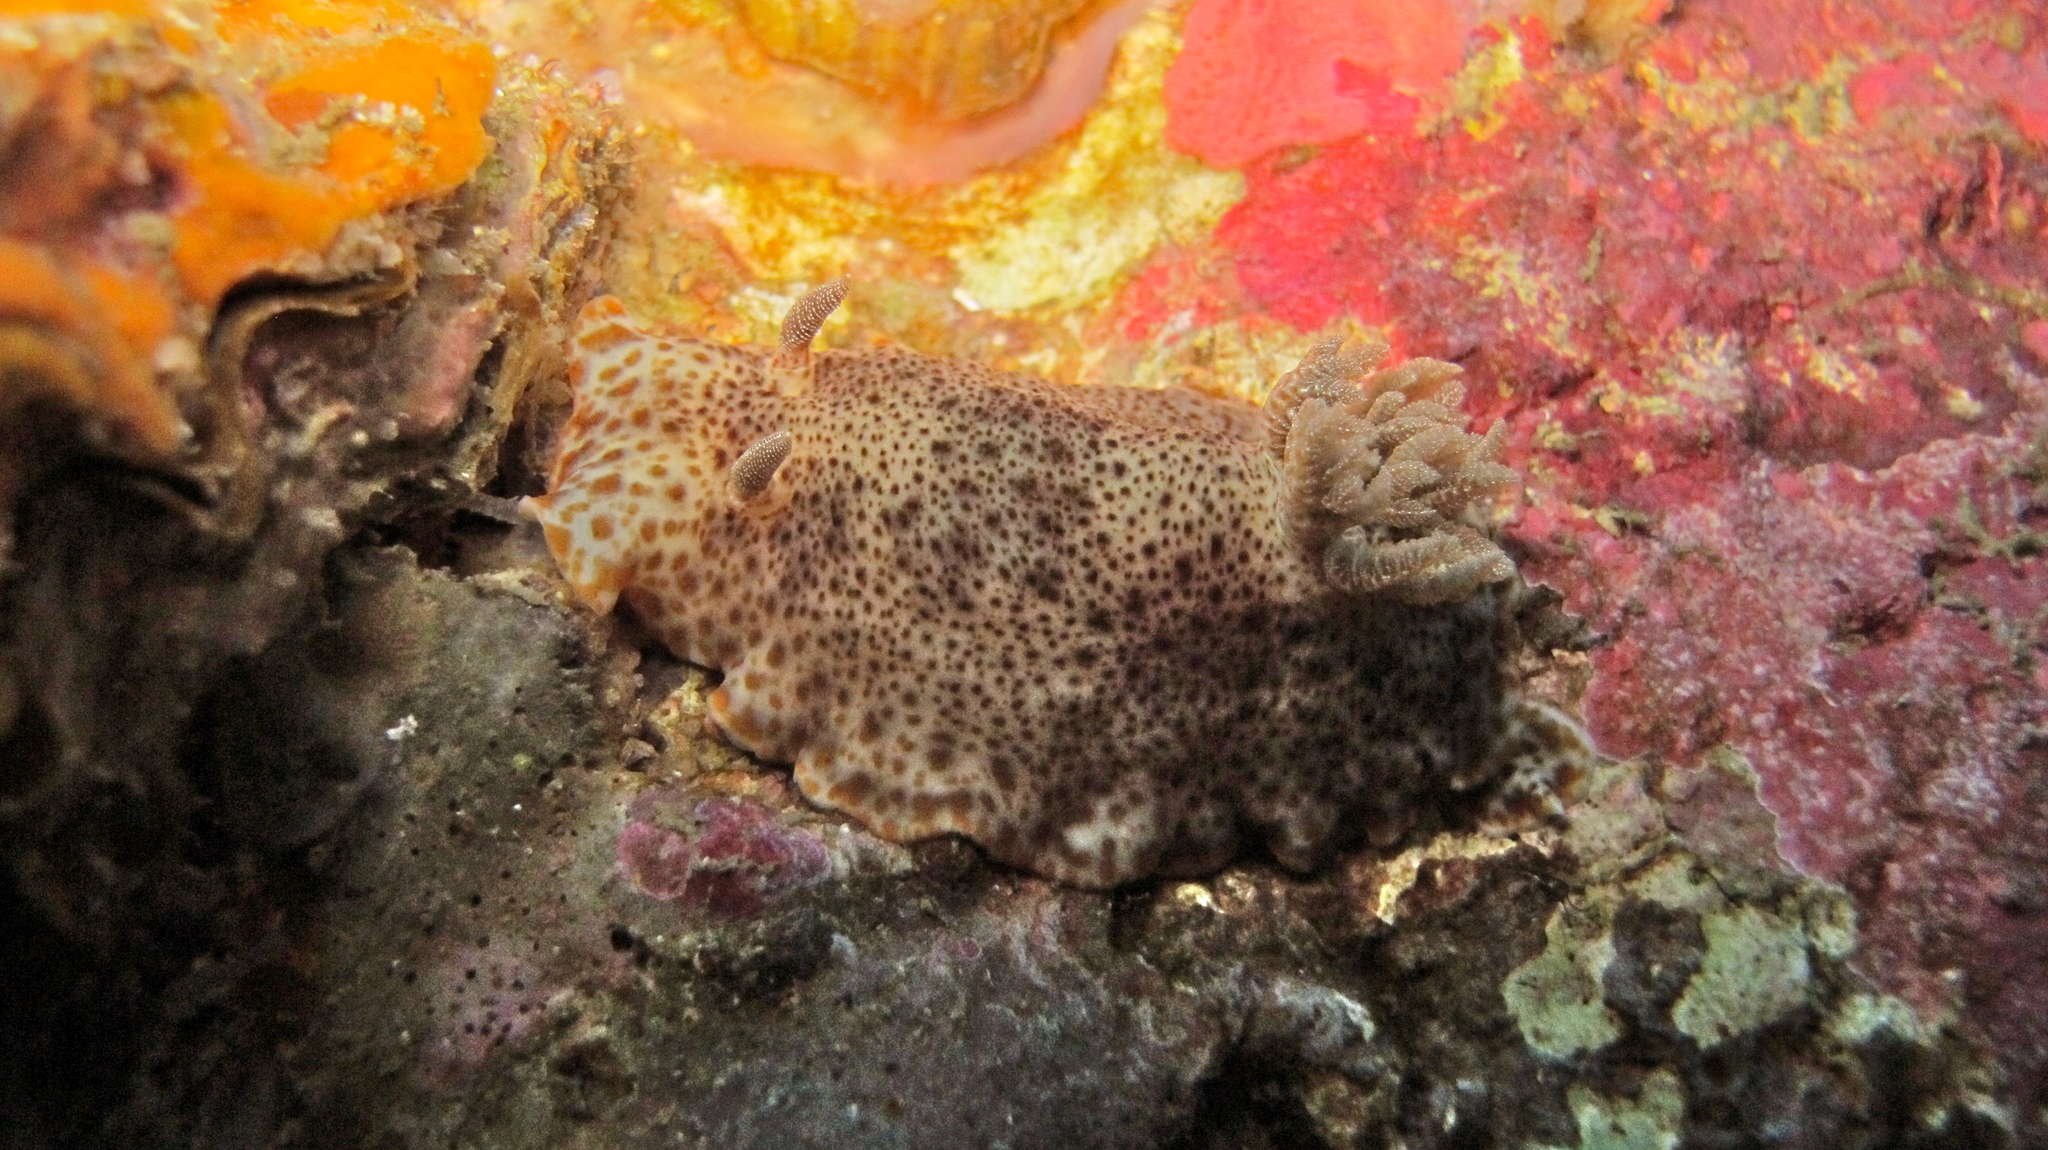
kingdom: Animalia
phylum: Mollusca
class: Gastropoda
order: Nudibranchia
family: Chromodorididae
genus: Chromodoris
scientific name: Chromodoris mandapamensis
